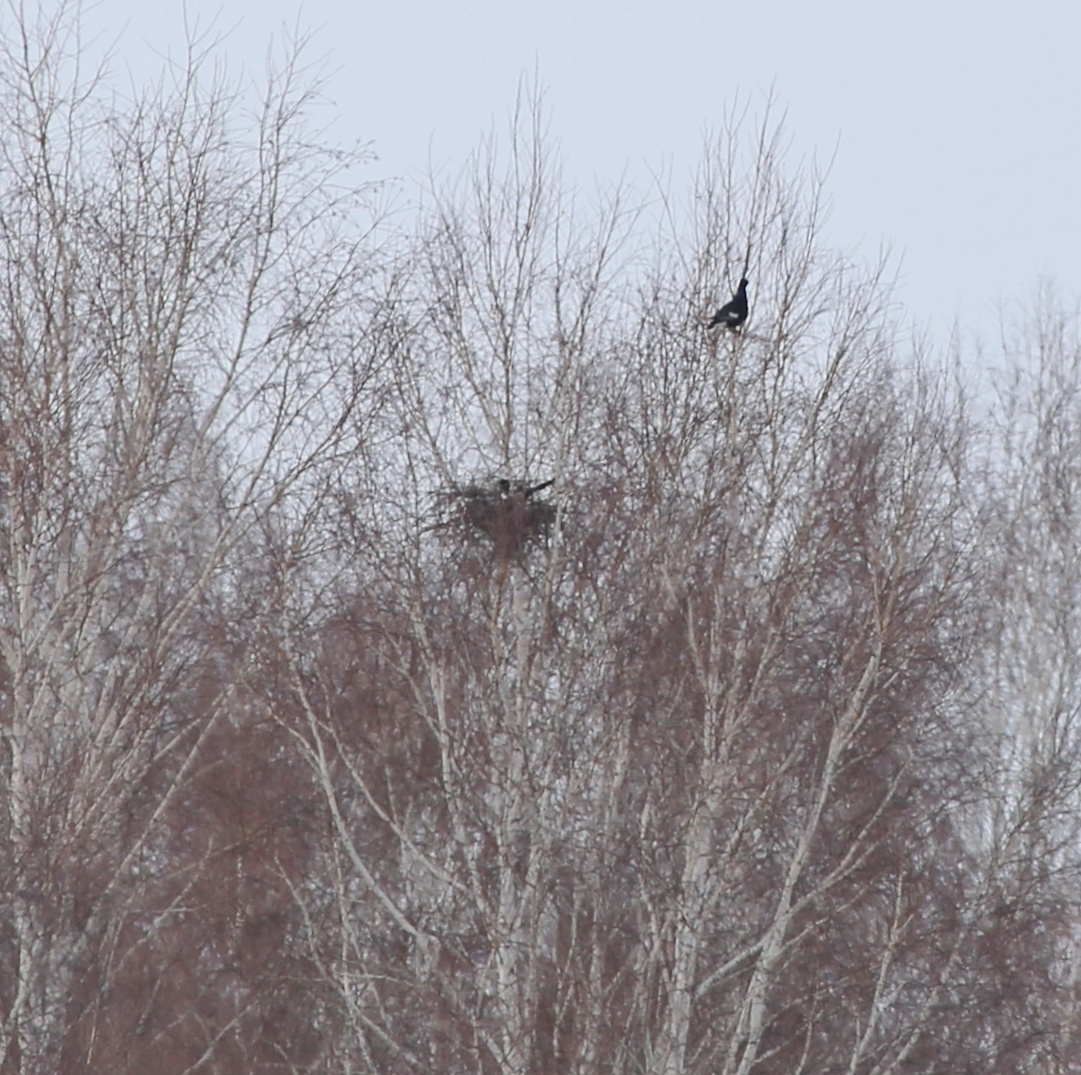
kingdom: Animalia
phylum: Chordata
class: Aves
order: Galliformes
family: Phasianidae
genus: Lyrurus
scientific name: Lyrurus tetrix
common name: Black grouse
